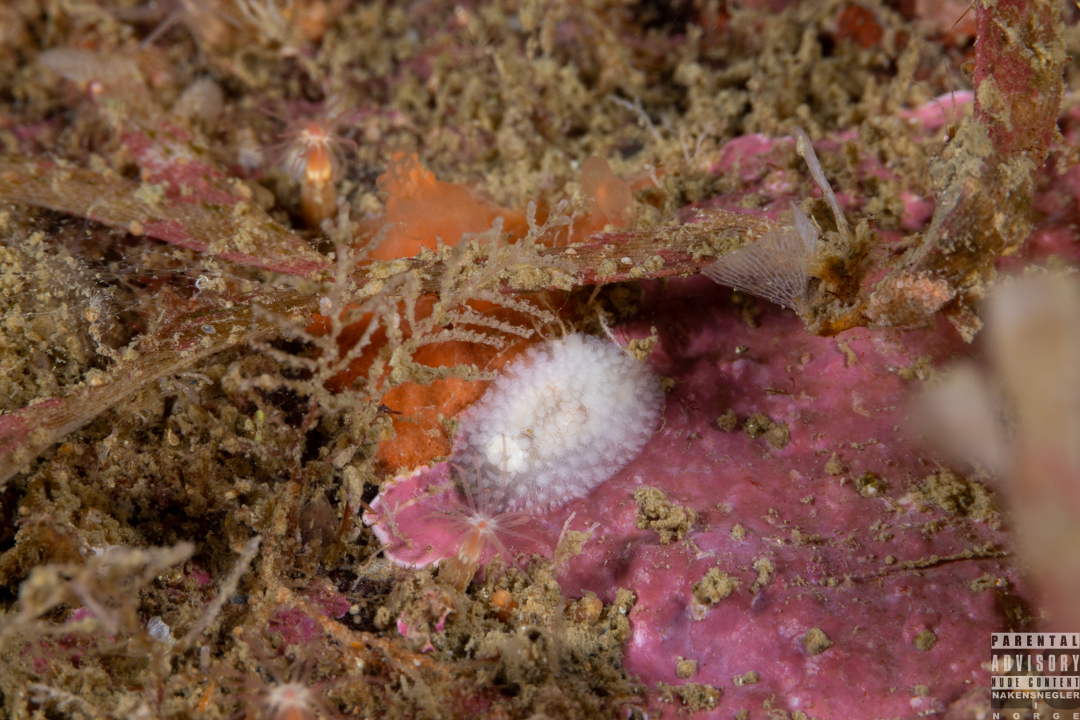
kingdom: Animalia
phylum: Mollusca
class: Gastropoda
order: Nudibranchia
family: Onchidorididae
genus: Onchidoris
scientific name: Onchidoris muricata
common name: Rough doris
